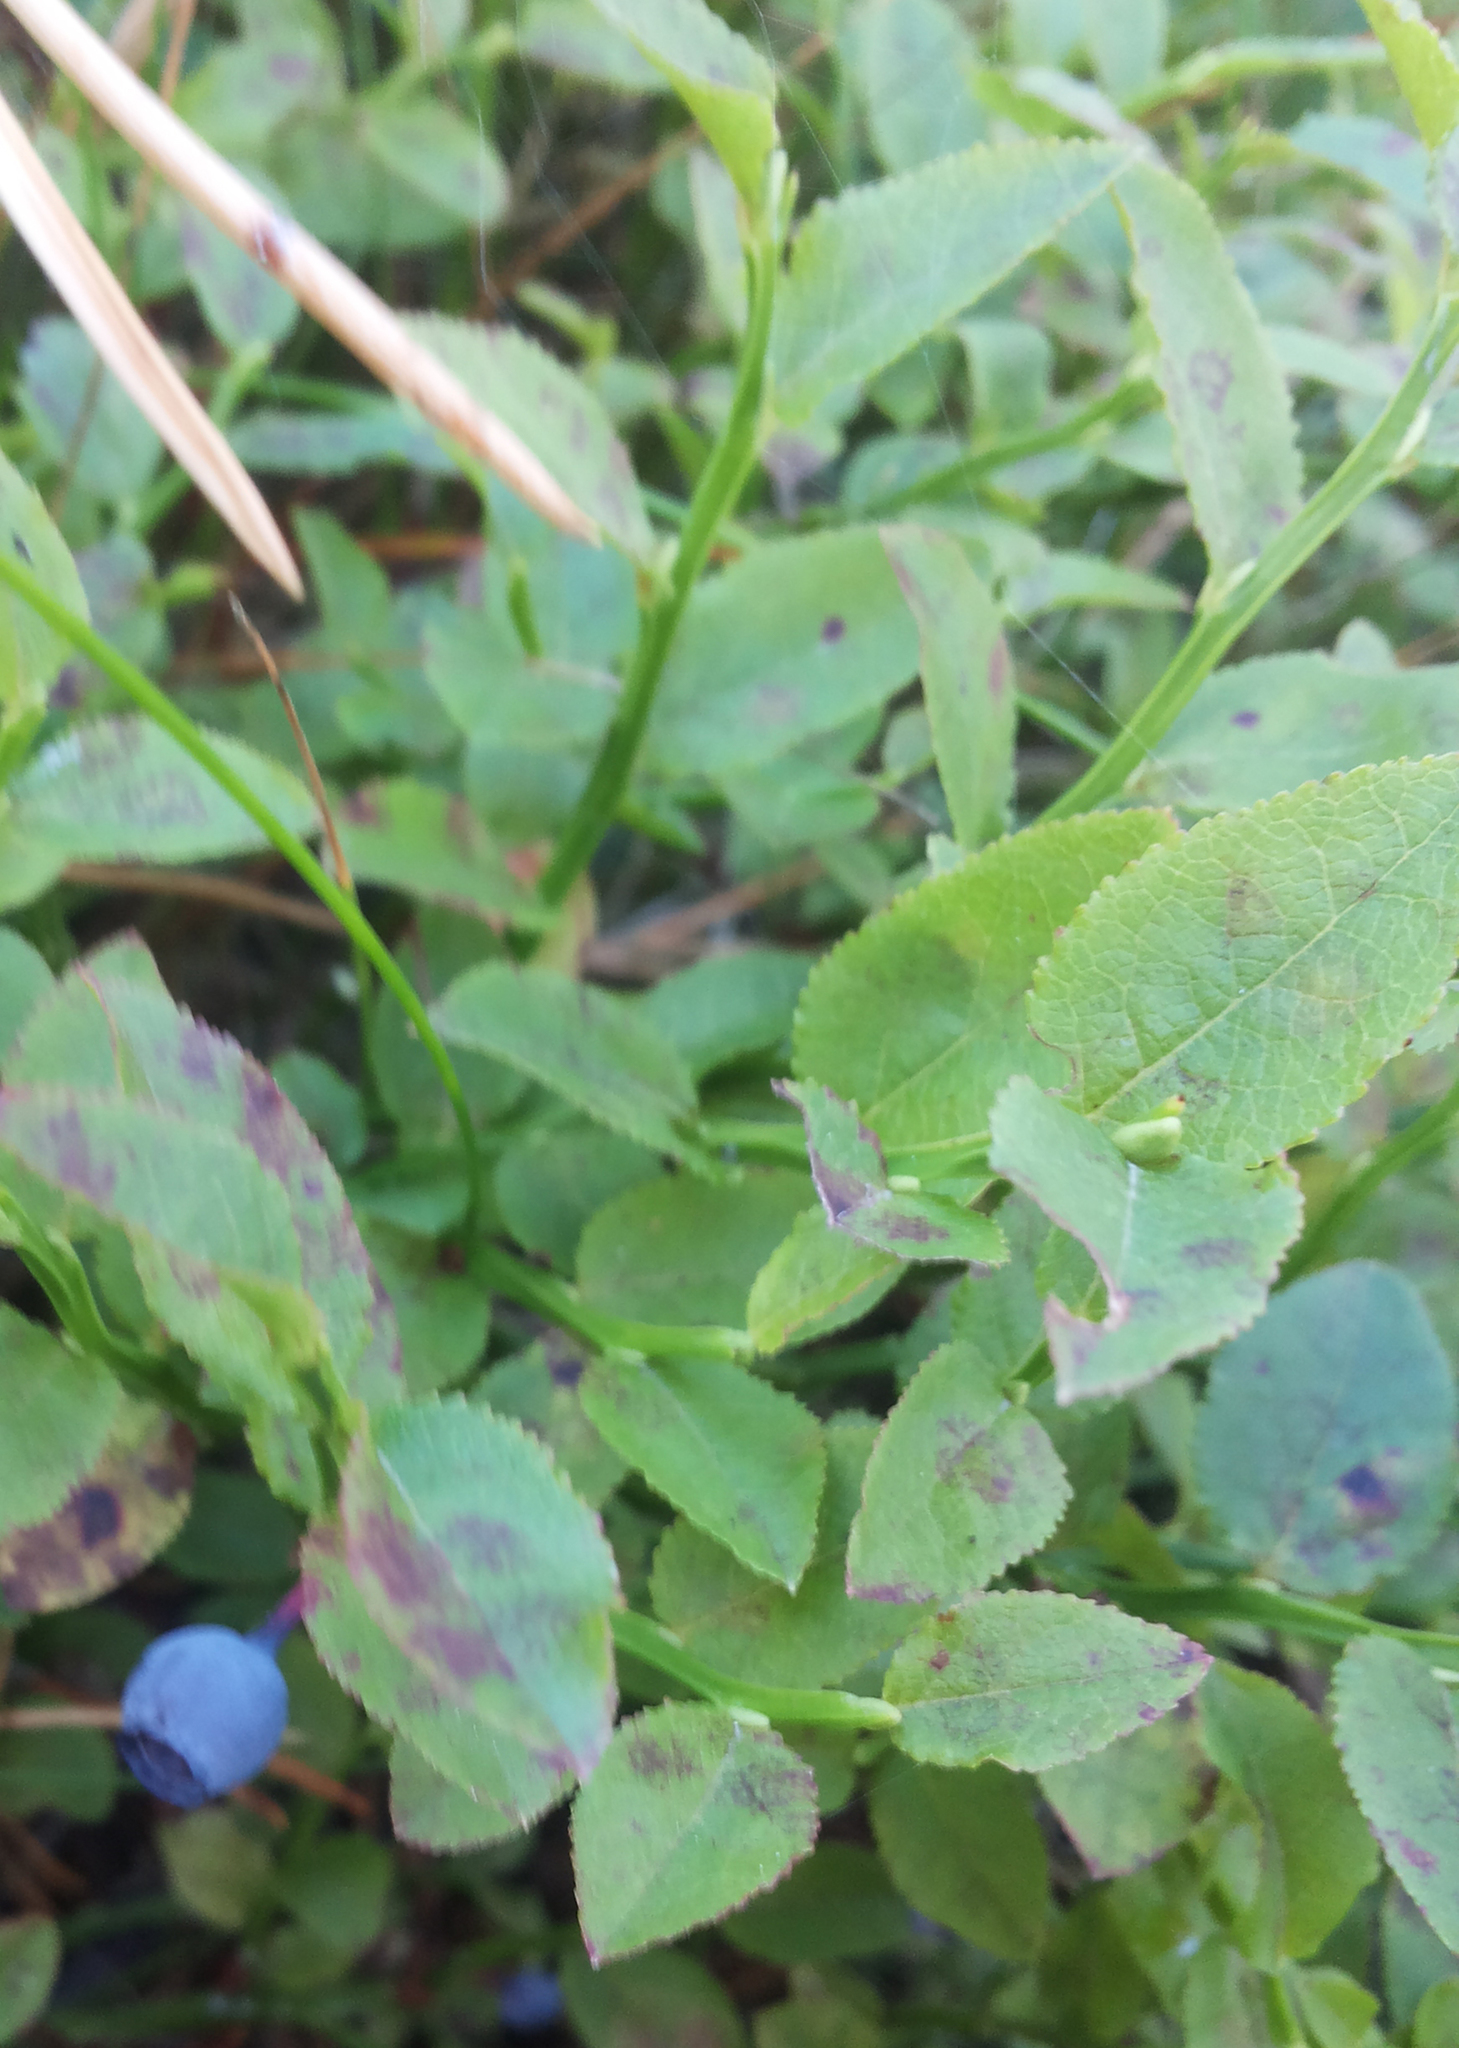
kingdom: Plantae
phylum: Tracheophyta
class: Magnoliopsida
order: Ericales
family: Ericaceae
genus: Vaccinium
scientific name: Vaccinium myrtillus
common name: Bilberry
